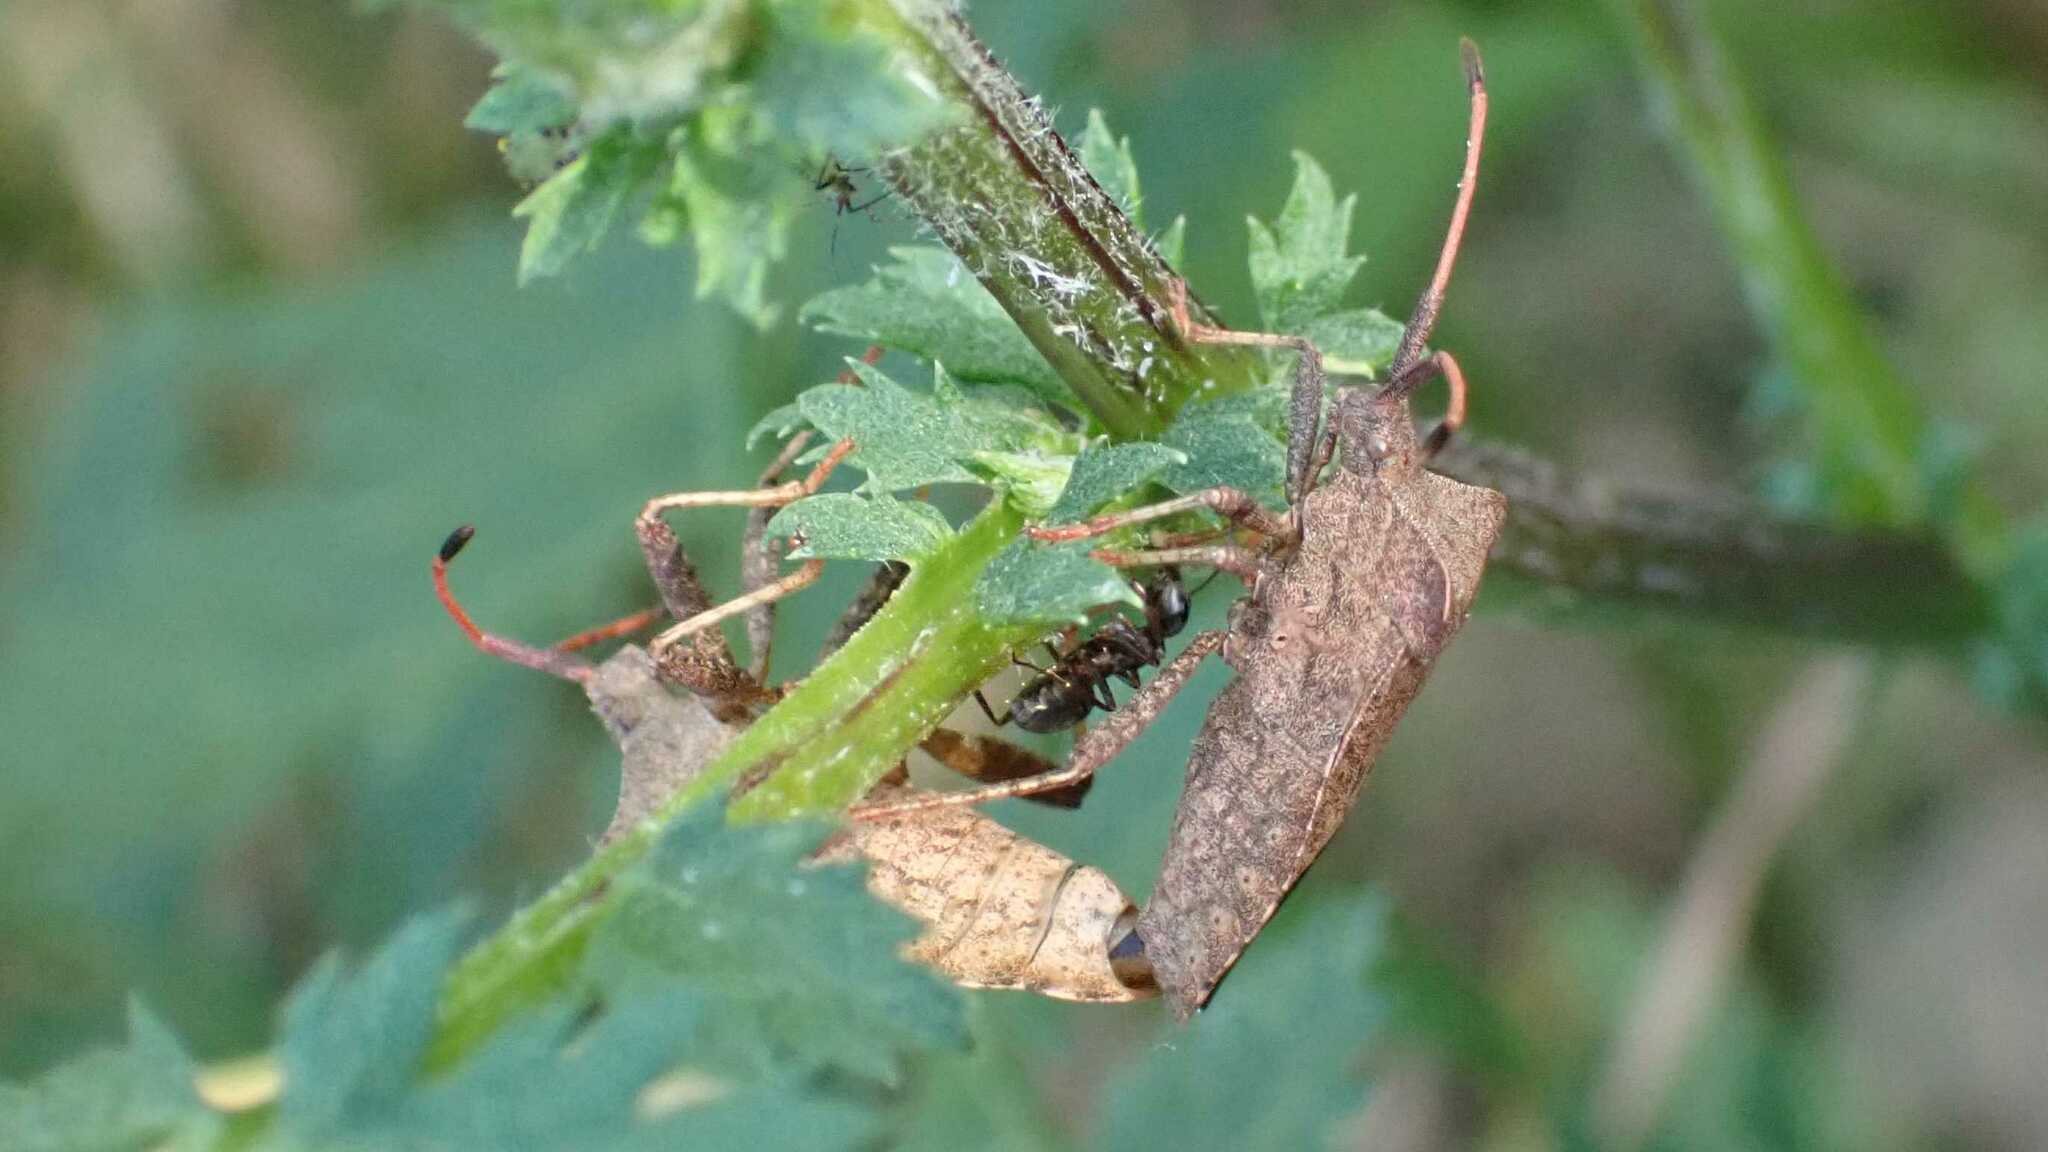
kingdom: Animalia
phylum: Arthropoda
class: Insecta
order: Hemiptera
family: Coreidae
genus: Coreus
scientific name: Coreus marginatus
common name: Dock bug
